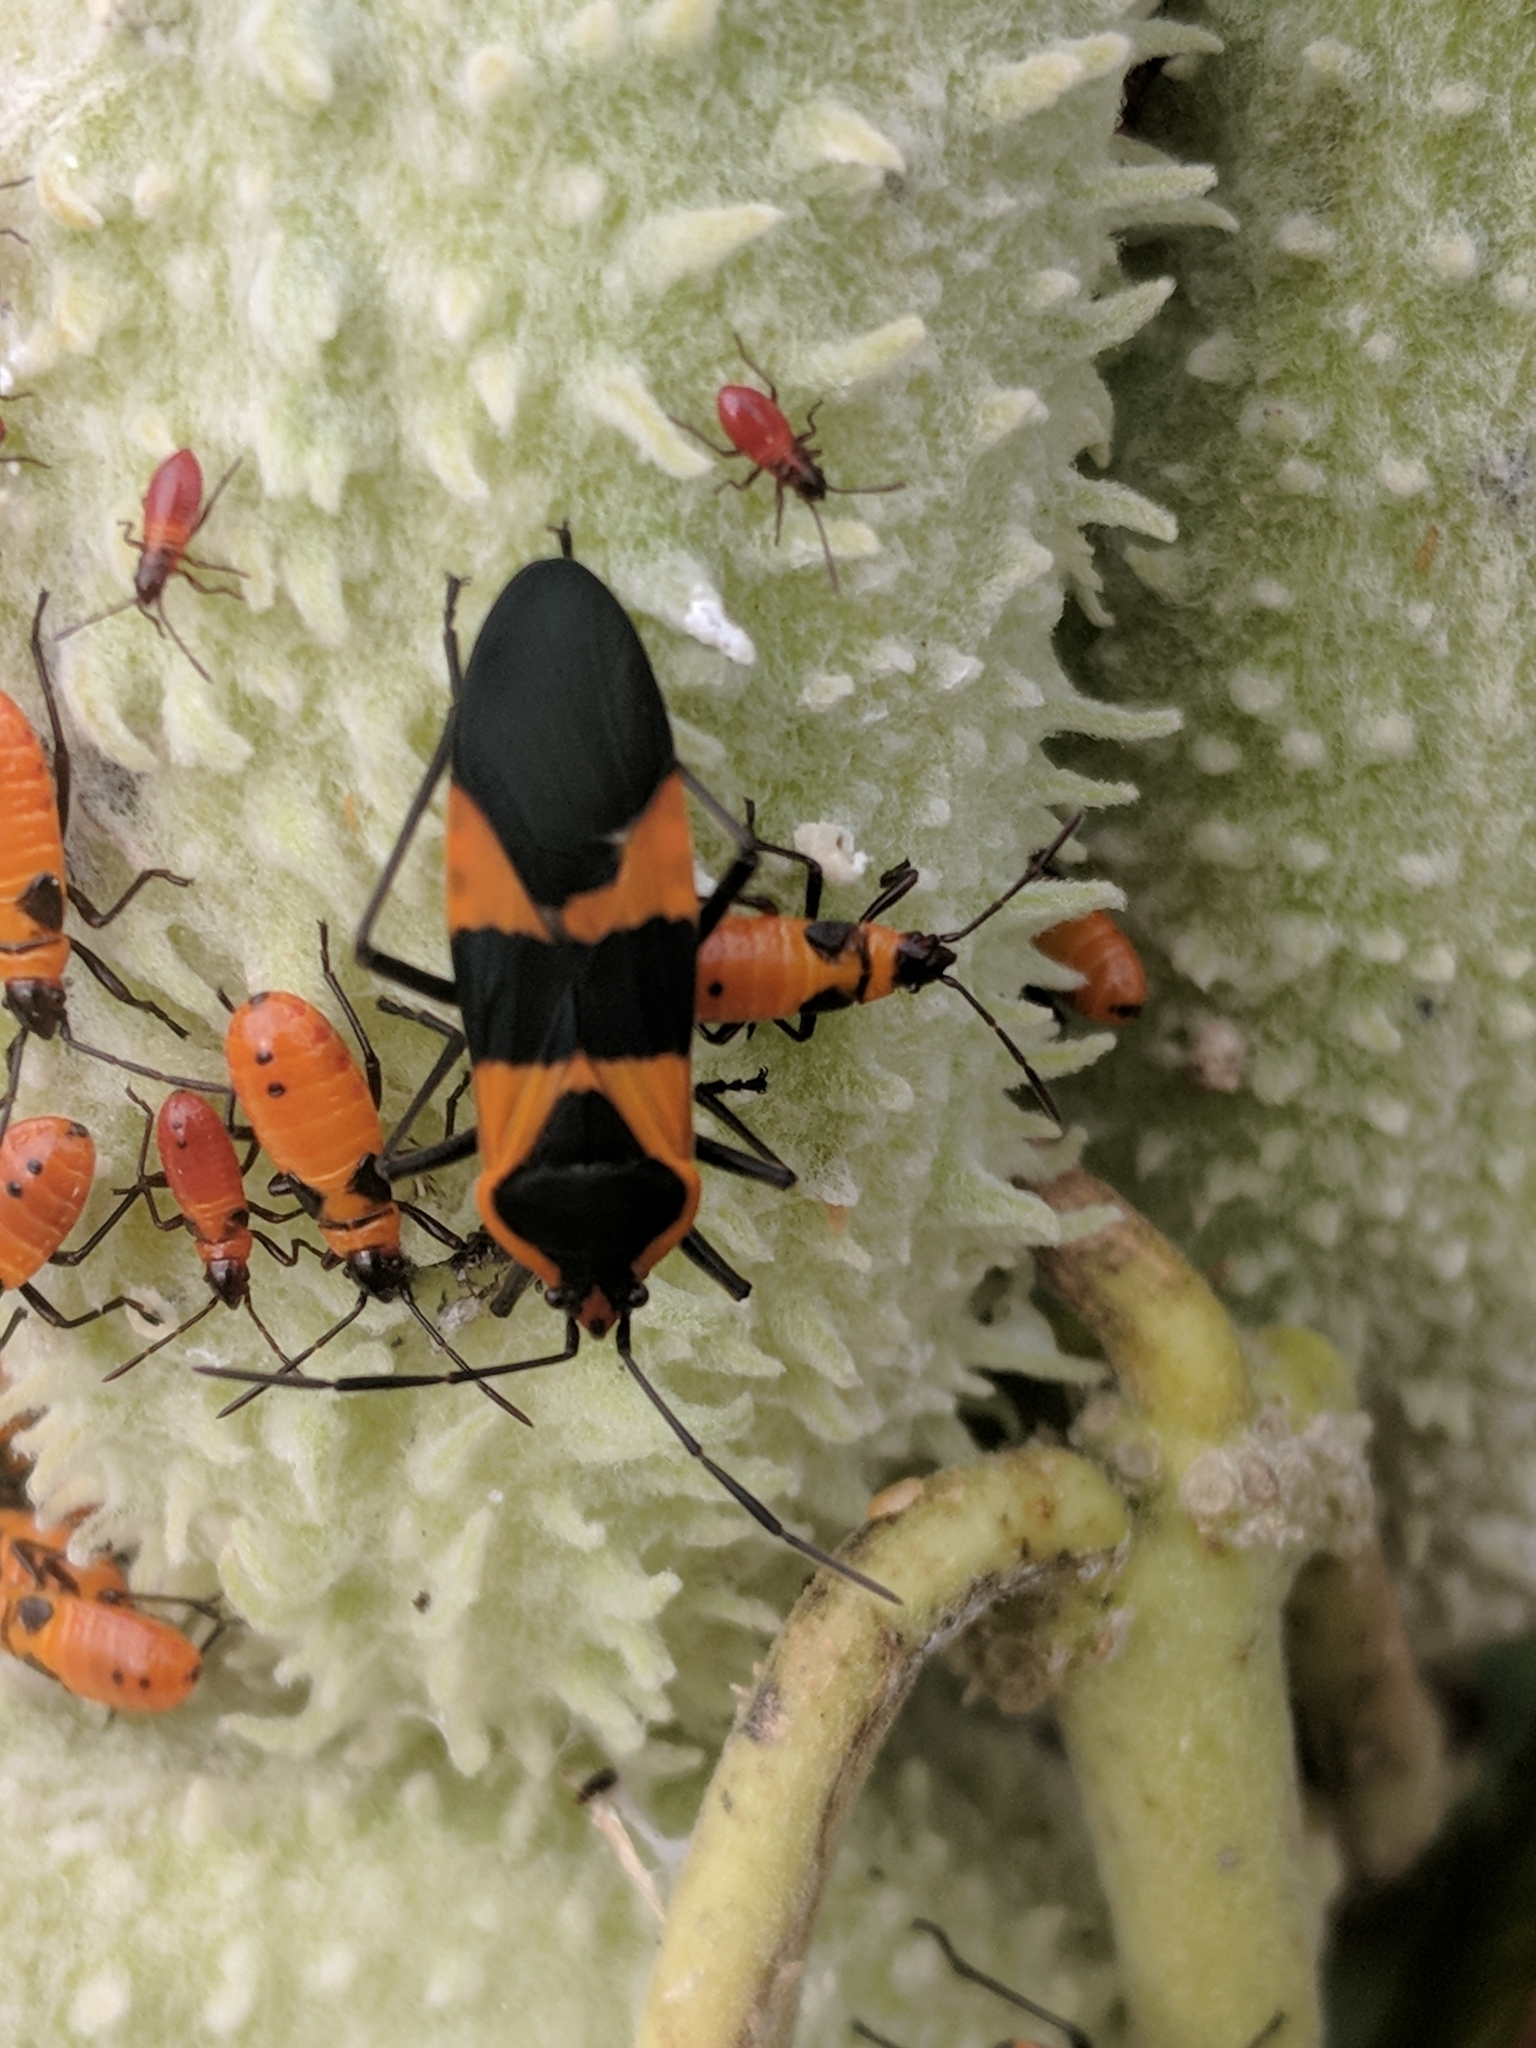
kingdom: Animalia
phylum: Arthropoda
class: Insecta
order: Hemiptera
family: Lygaeidae
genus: Oncopeltus
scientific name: Oncopeltus fasciatus
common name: Large milkweed bug
